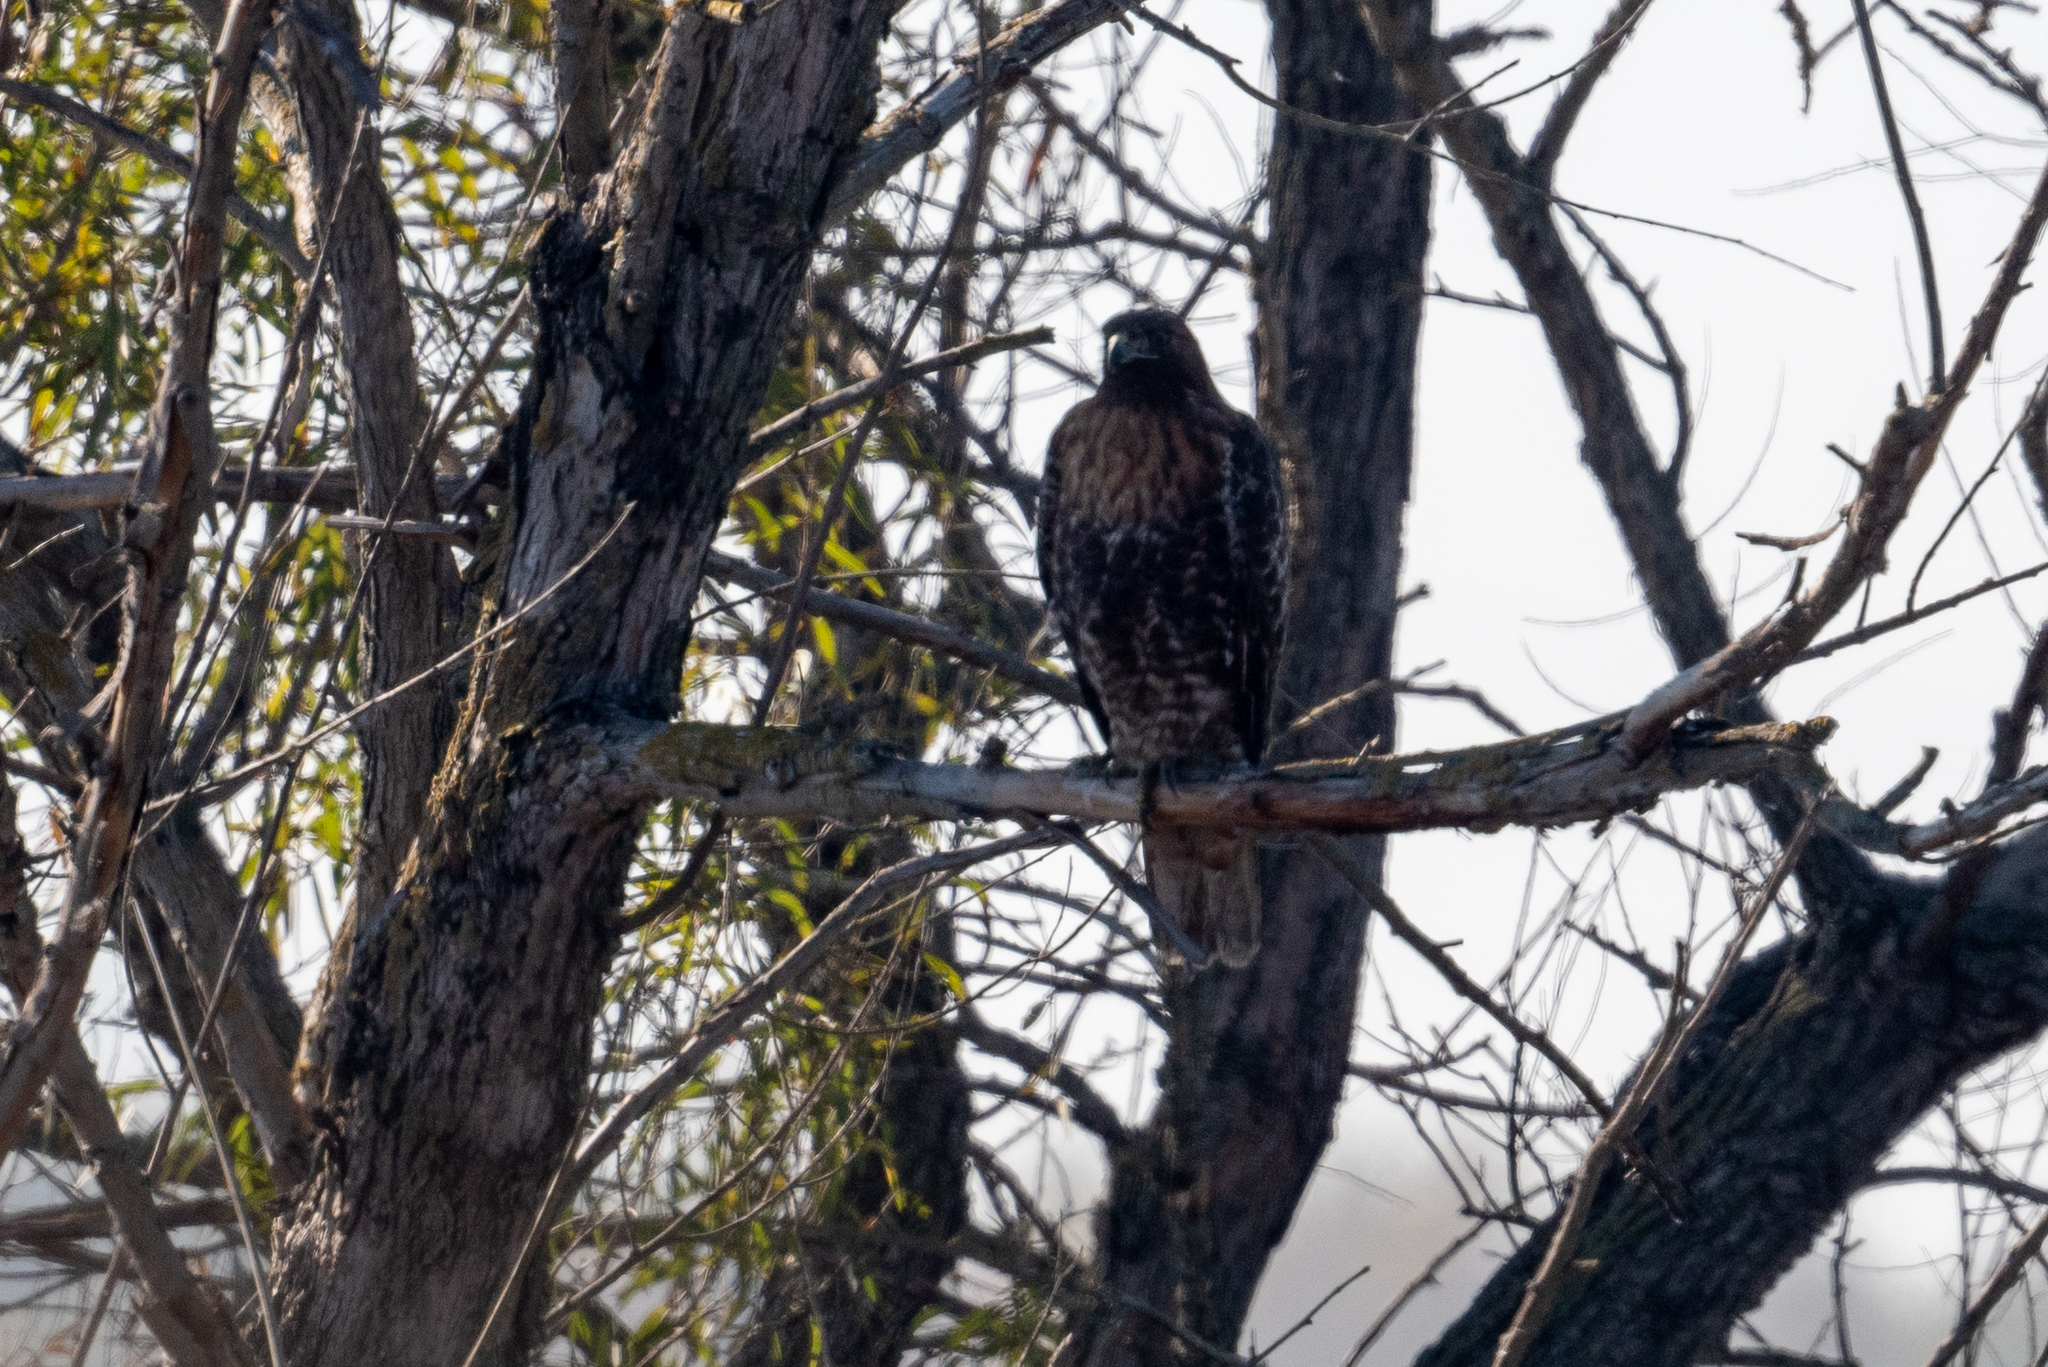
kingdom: Animalia
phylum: Chordata
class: Aves
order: Accipitriformes
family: Accipitridae
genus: Buteo
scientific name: Buteo jamaicensis
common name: Red-tailed hawk
